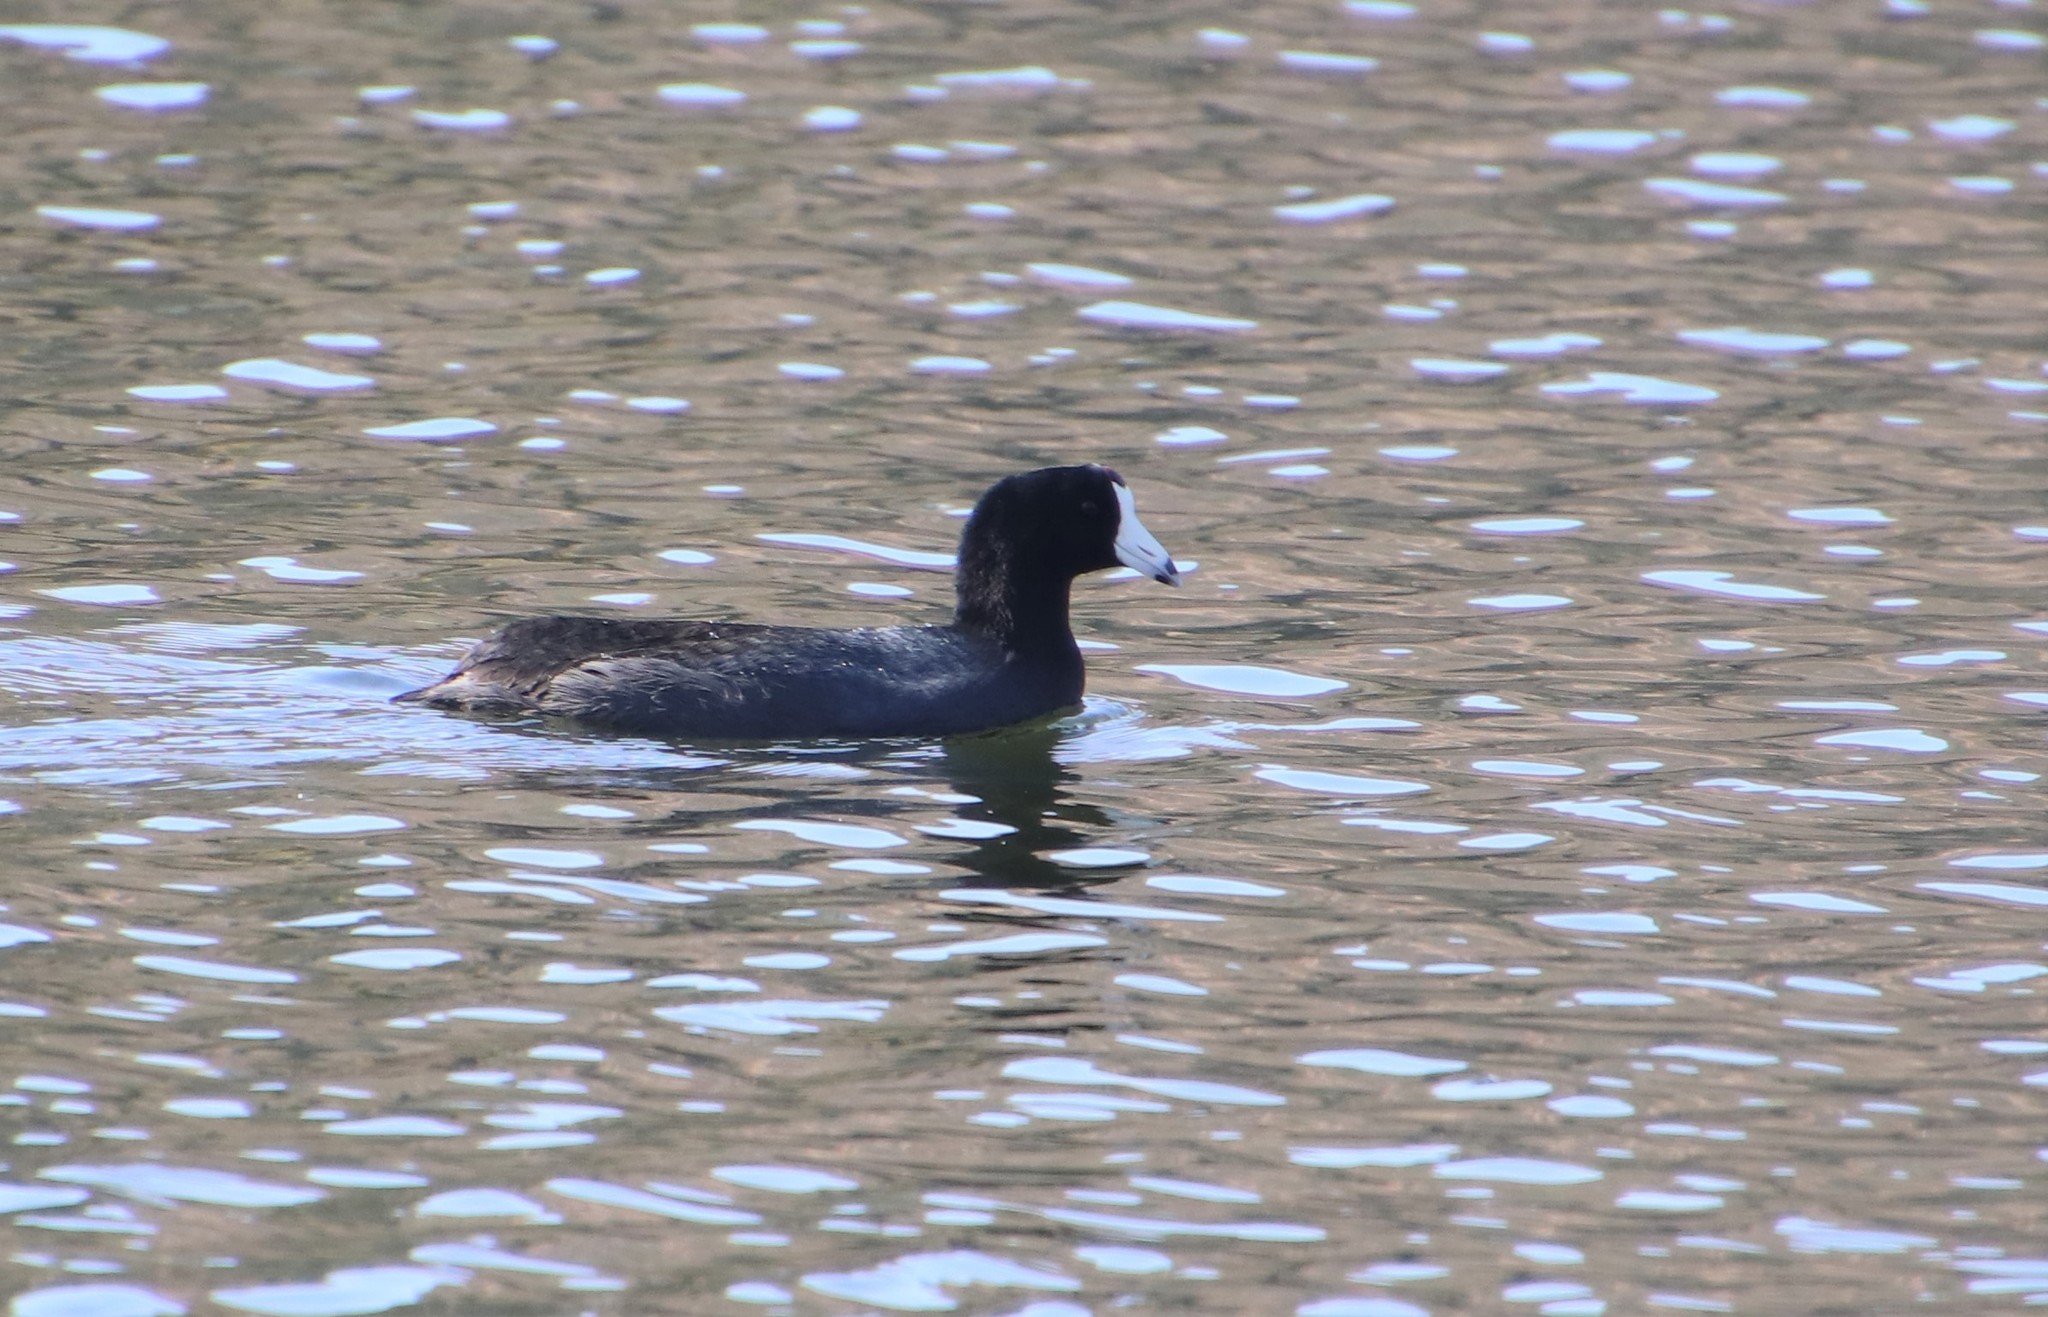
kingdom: Animalia
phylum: Chordata
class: Aves
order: Gruiformes
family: Rallidae
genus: Fulica
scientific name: Fulica americana
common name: American coot
